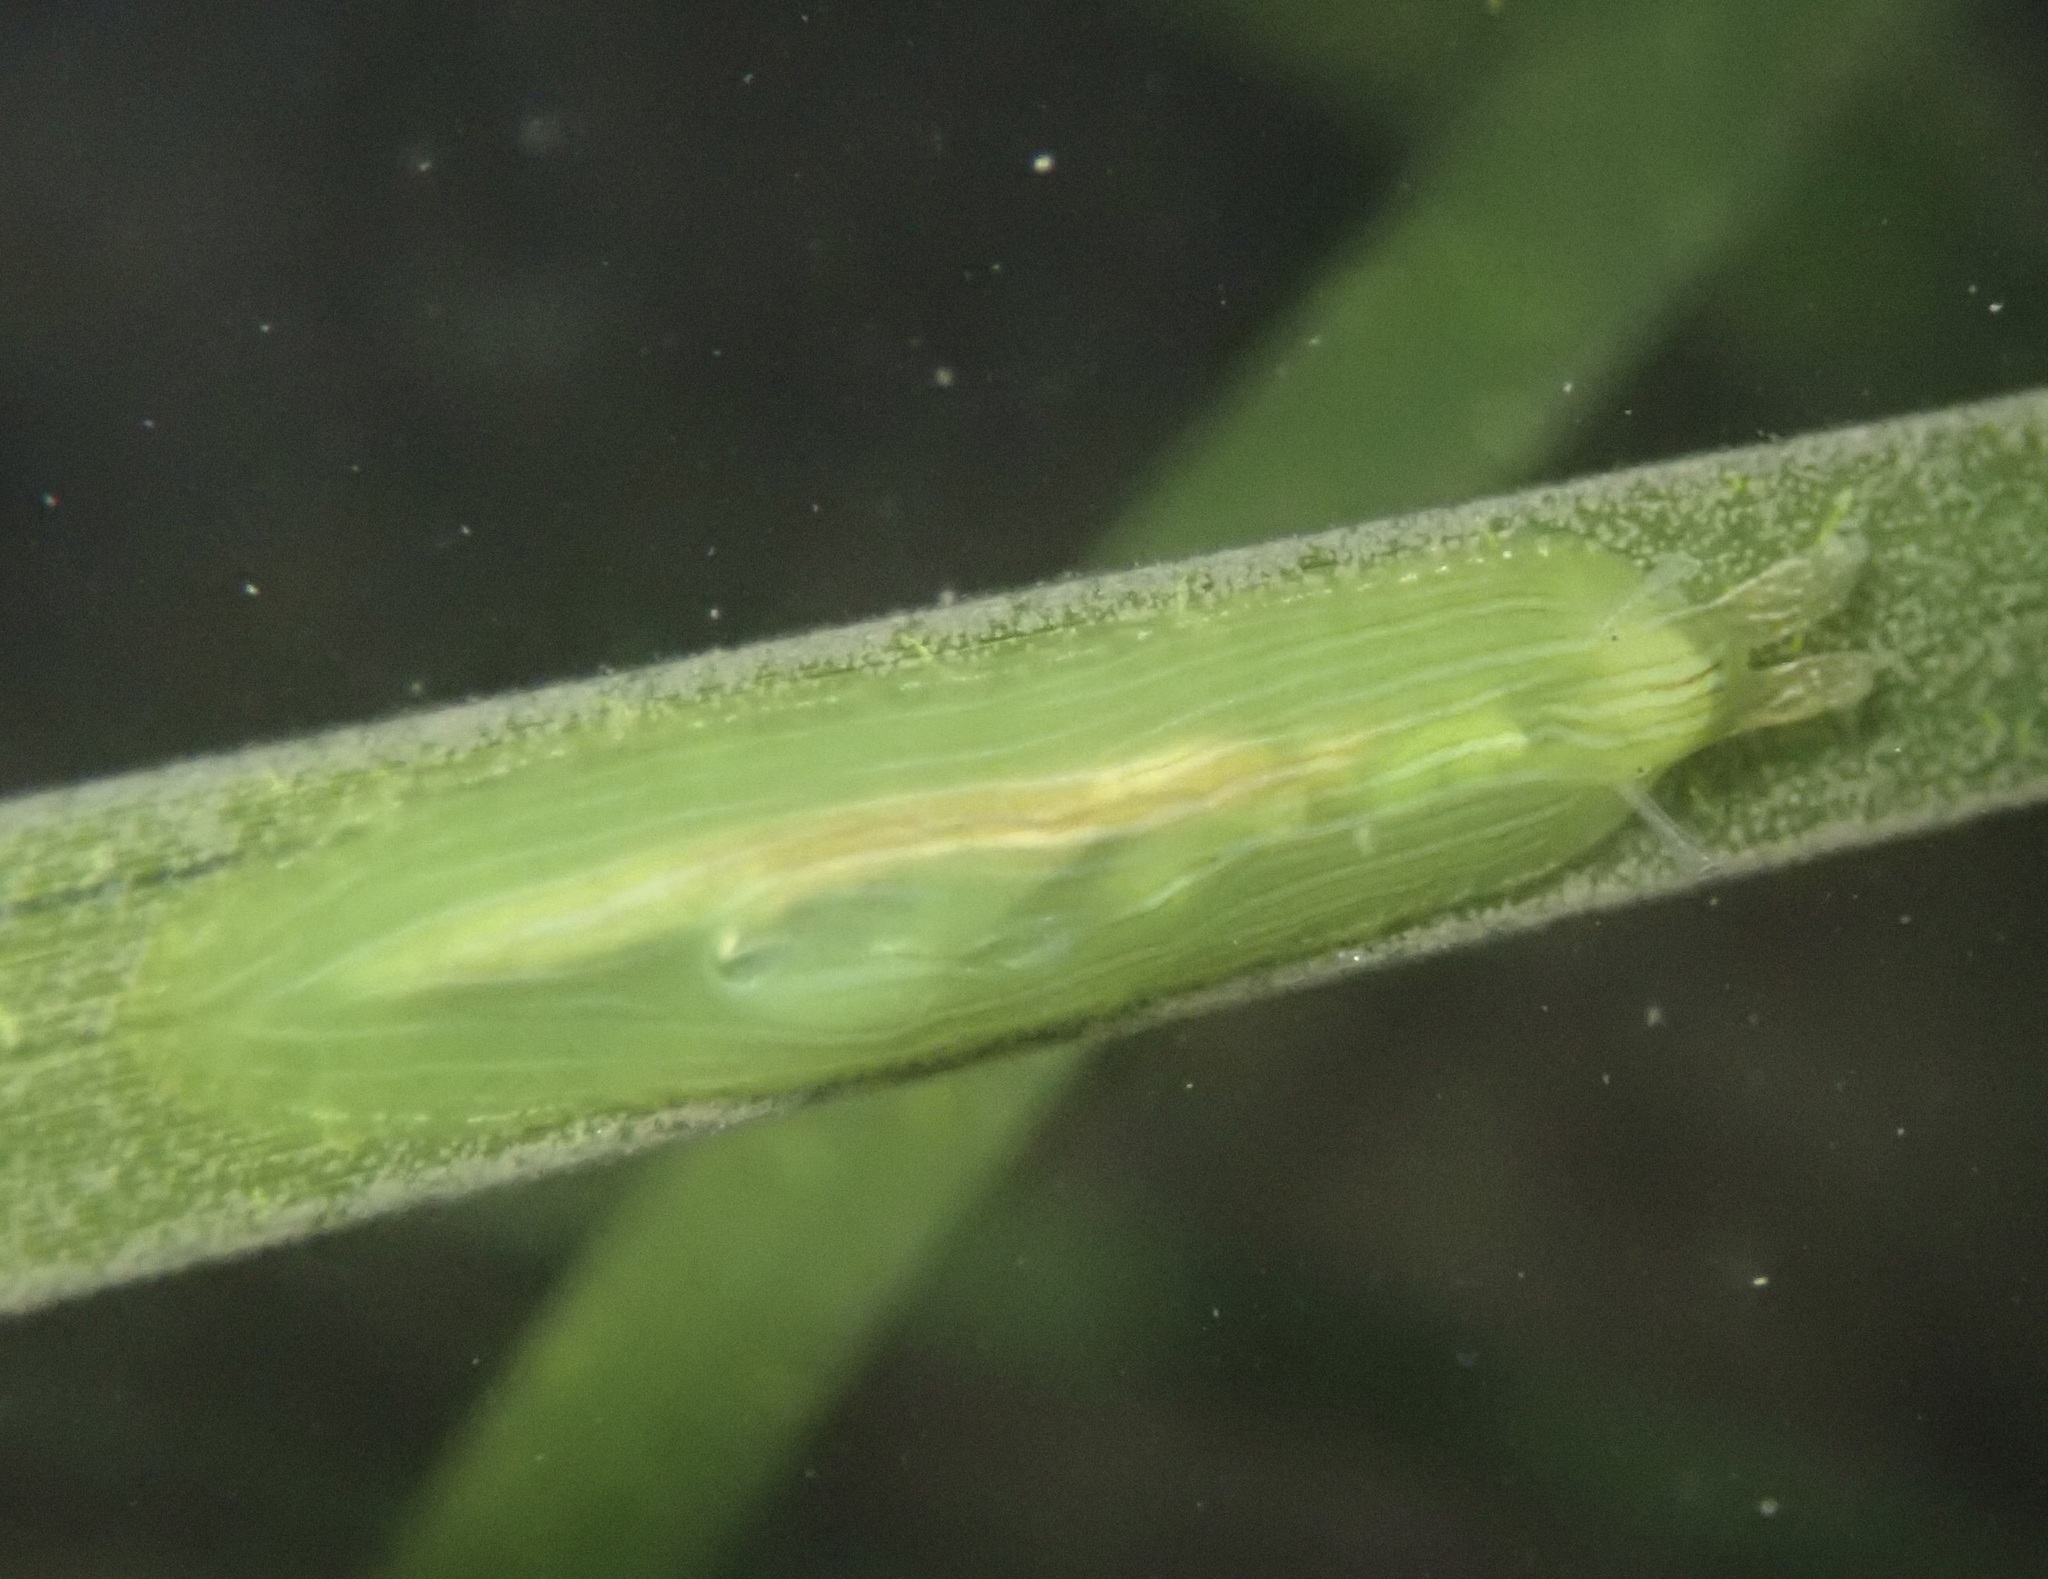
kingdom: Animalia
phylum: Mollusca
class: Gastropoda
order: Aplysiida
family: Aplysiidae
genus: Phyllaplysia
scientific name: Phyllaplysia taylori
